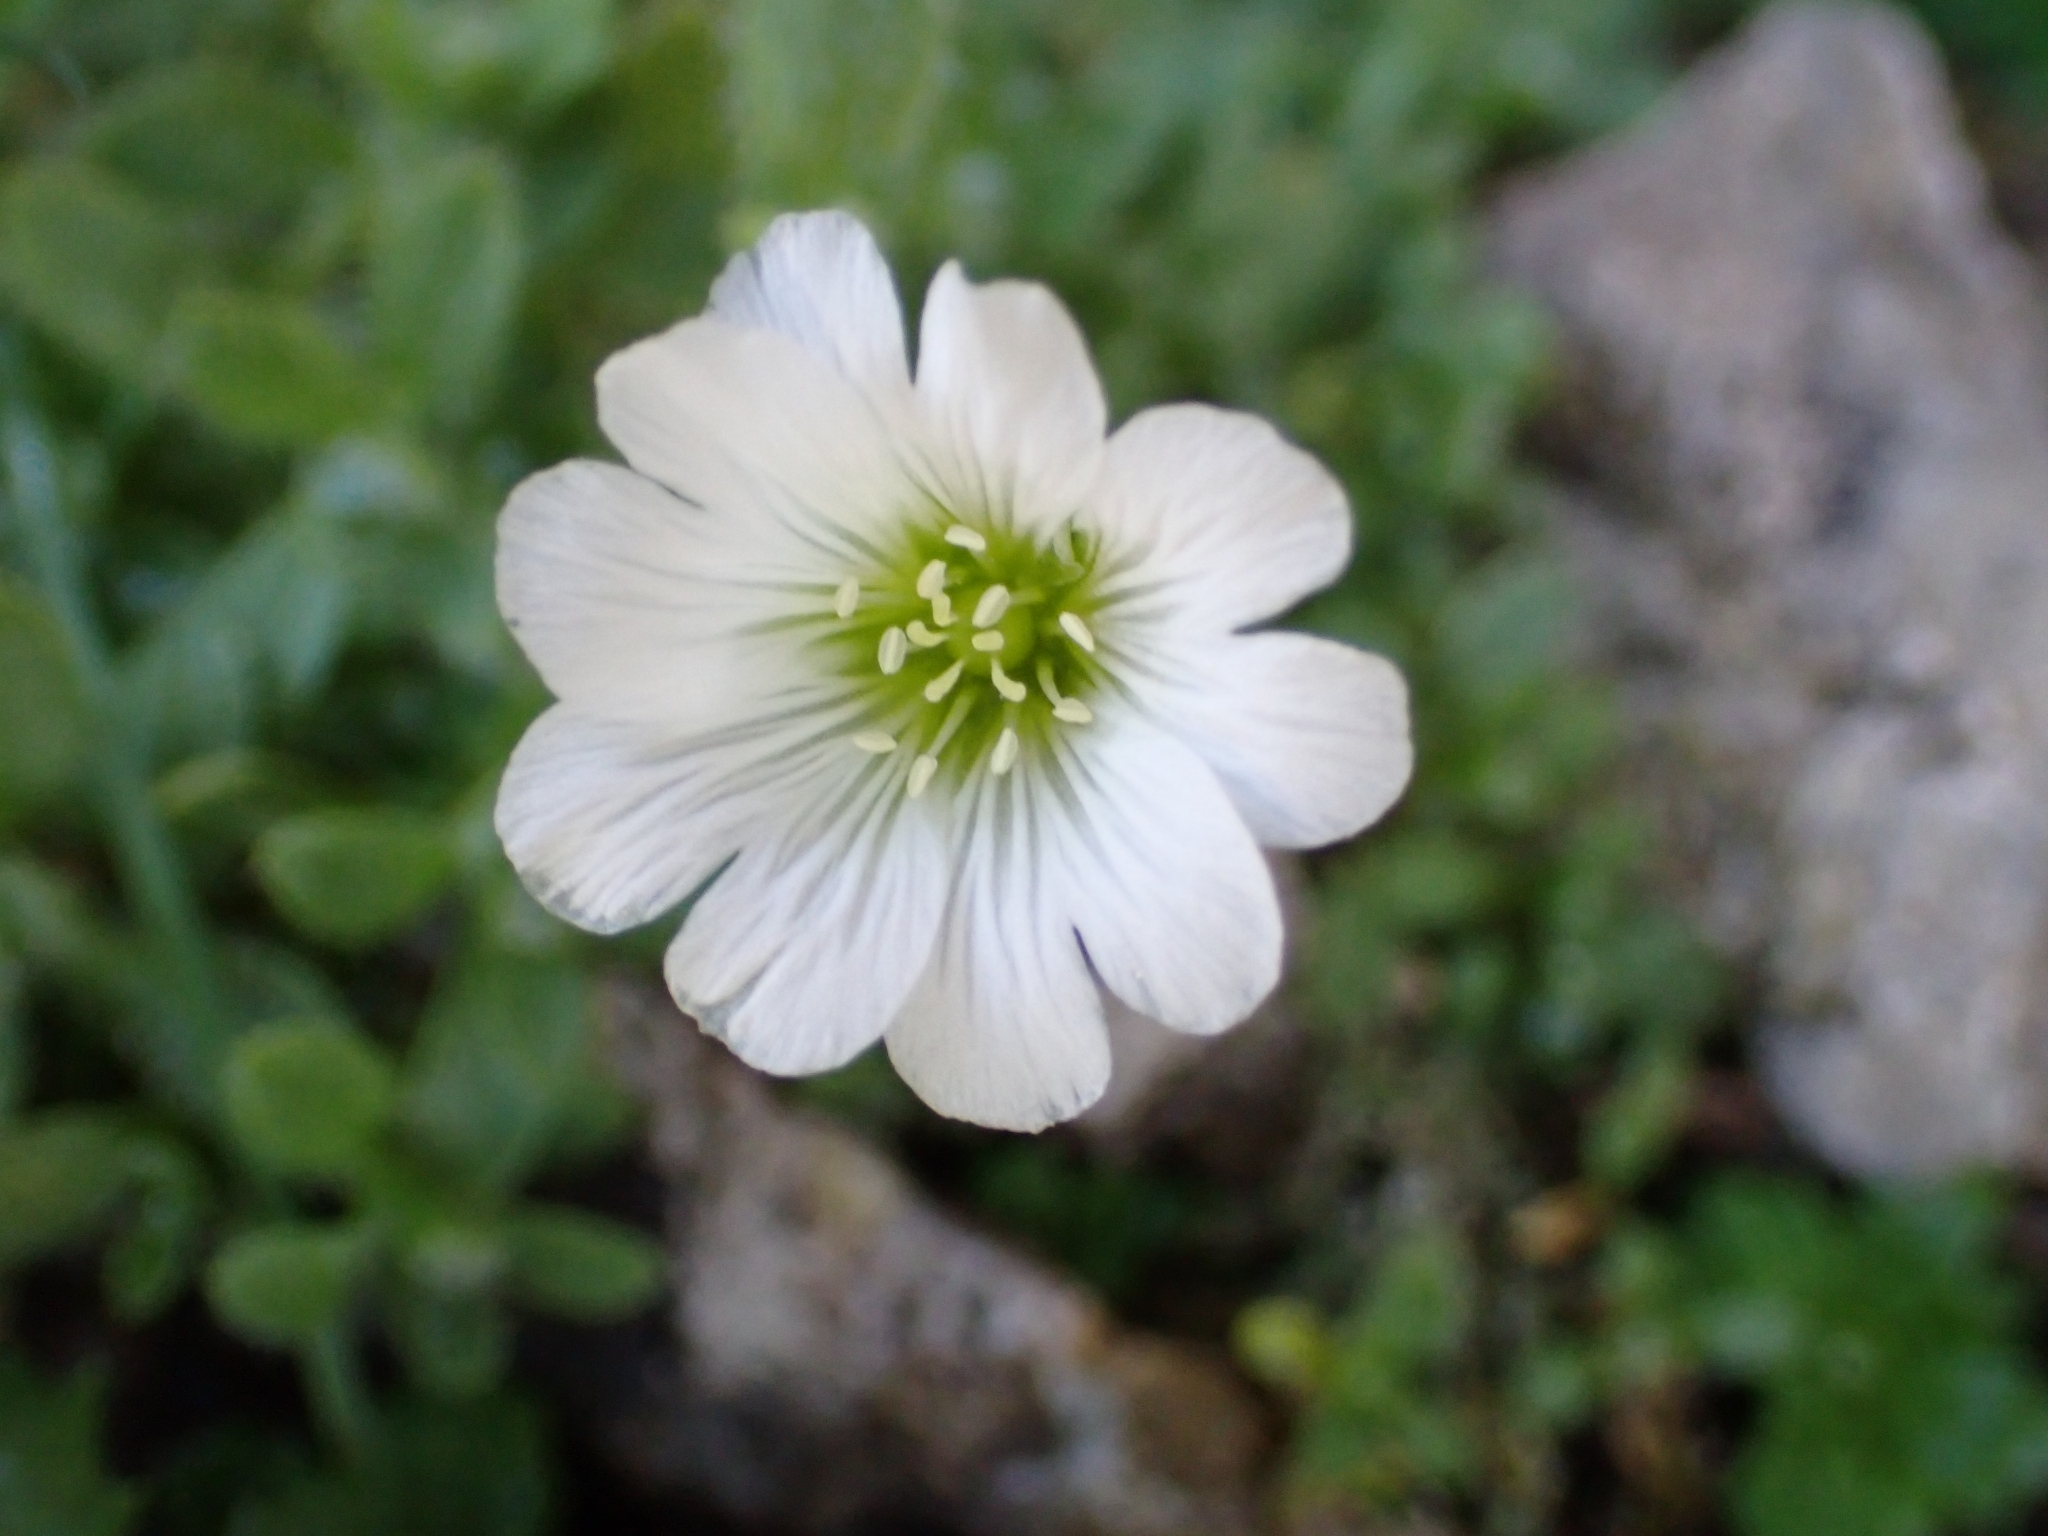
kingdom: Plantae
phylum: Tracheophyta
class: Magnoliopsida
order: Caryophyllales
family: Caryophyllaceae
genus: Cerastium
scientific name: Cerastium uniflorum
